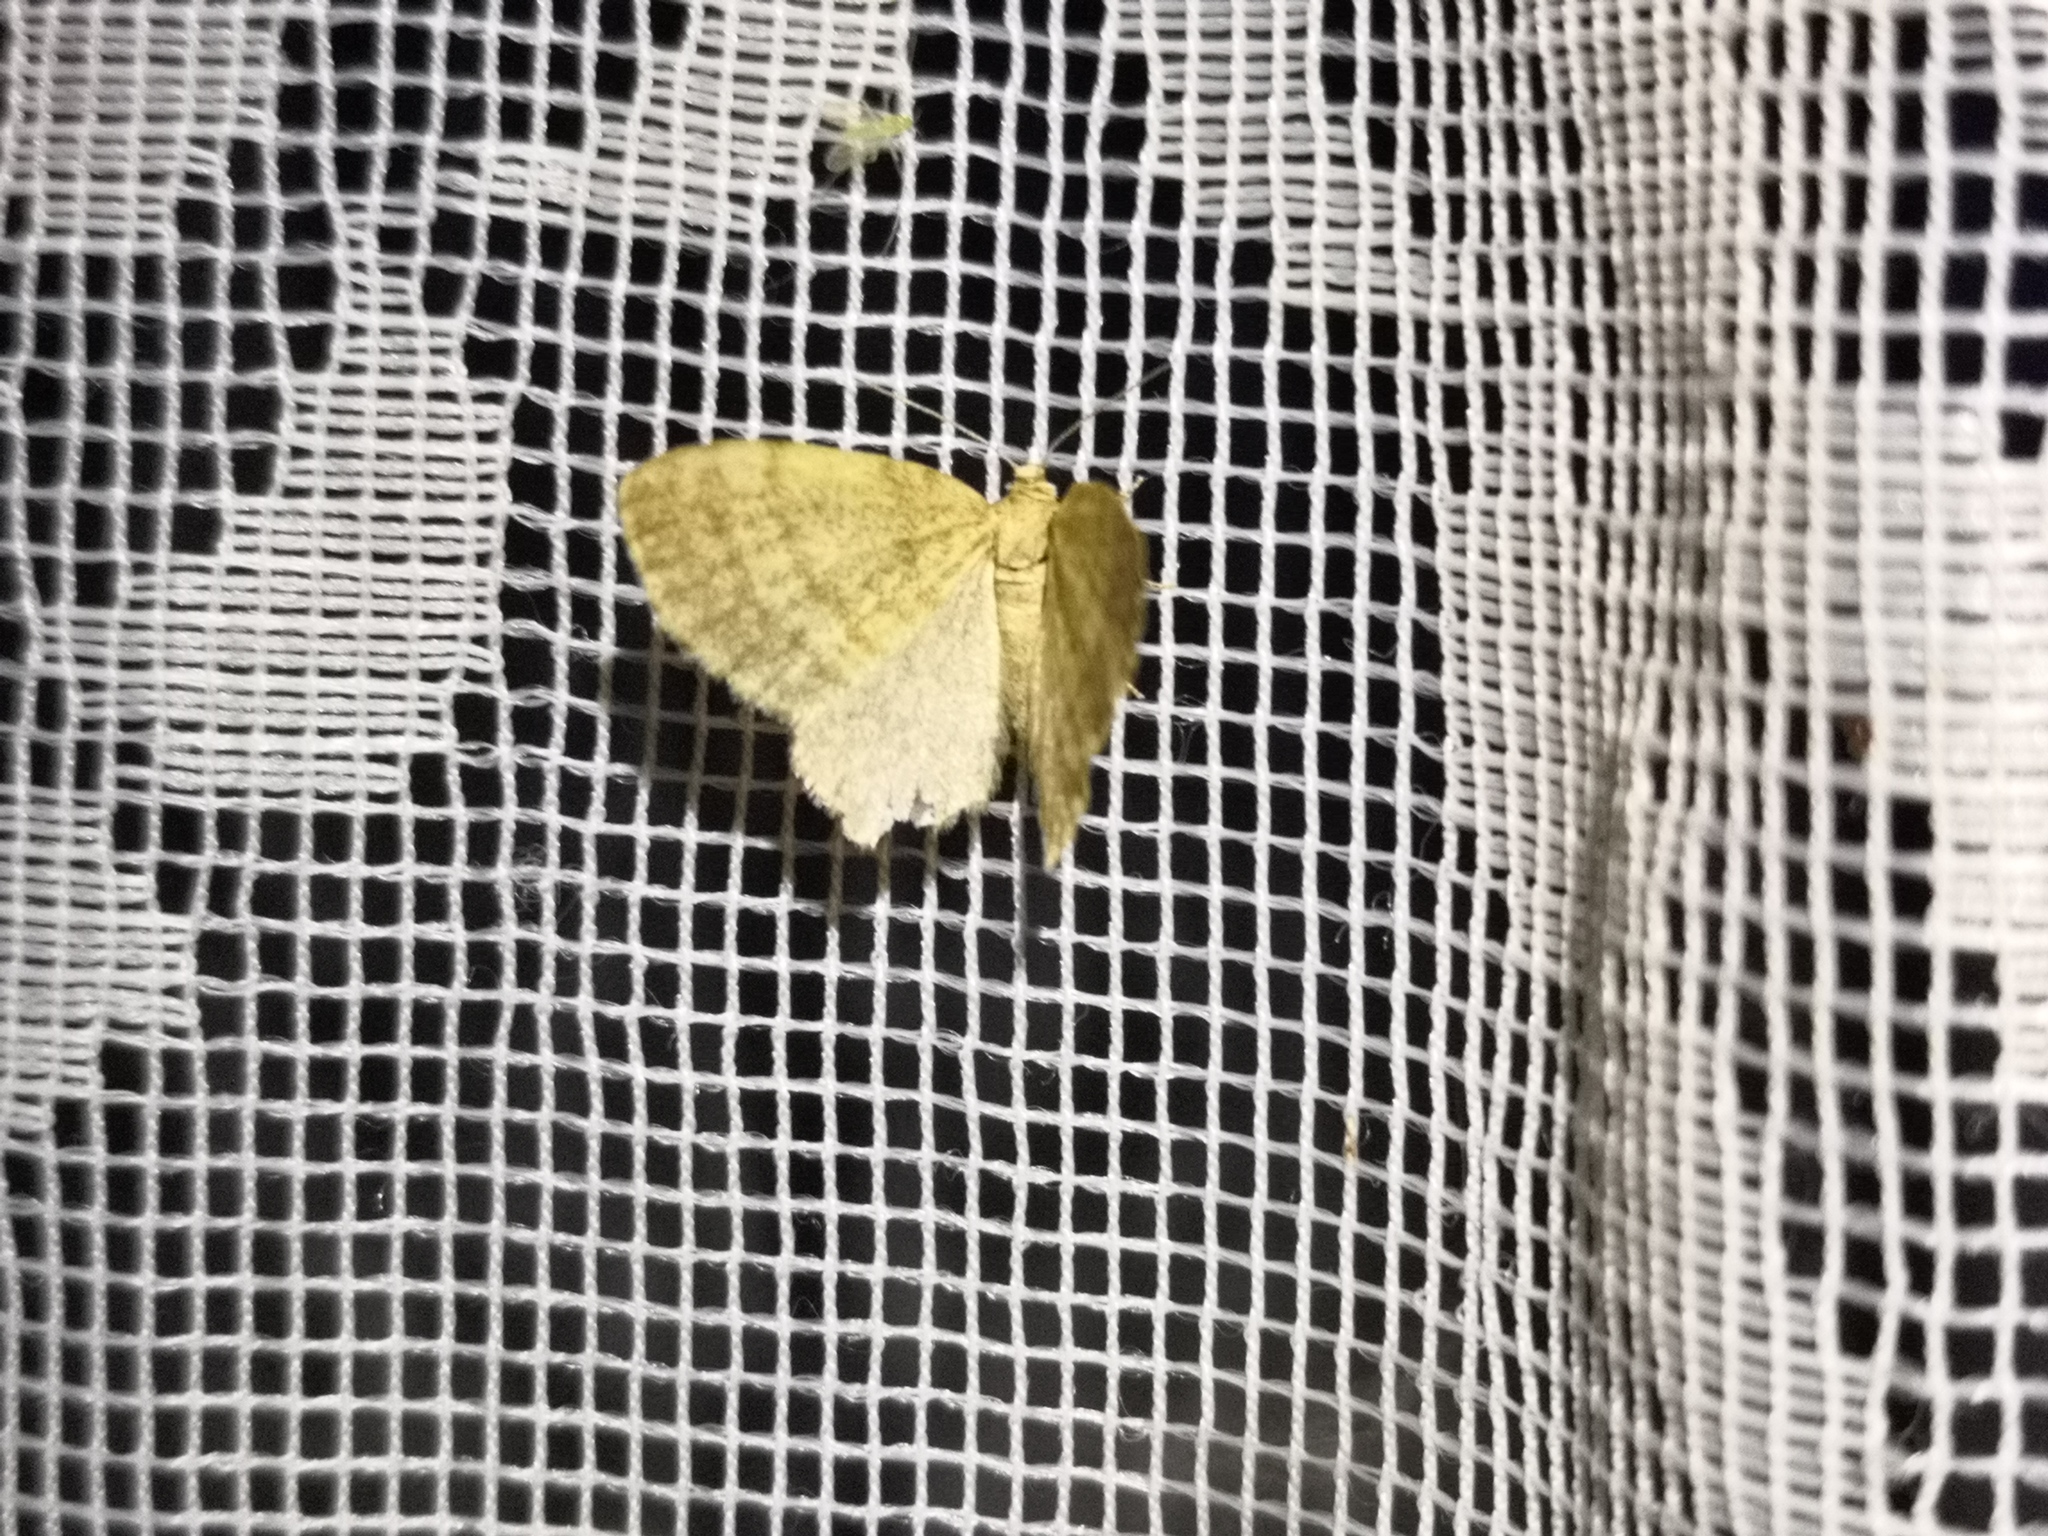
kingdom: Animalia
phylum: Arthropoda
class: Insecta
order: Lepidoptera
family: Geometridae
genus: Euchoeca
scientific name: Euchoeca nebulata
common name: Dingy shell
